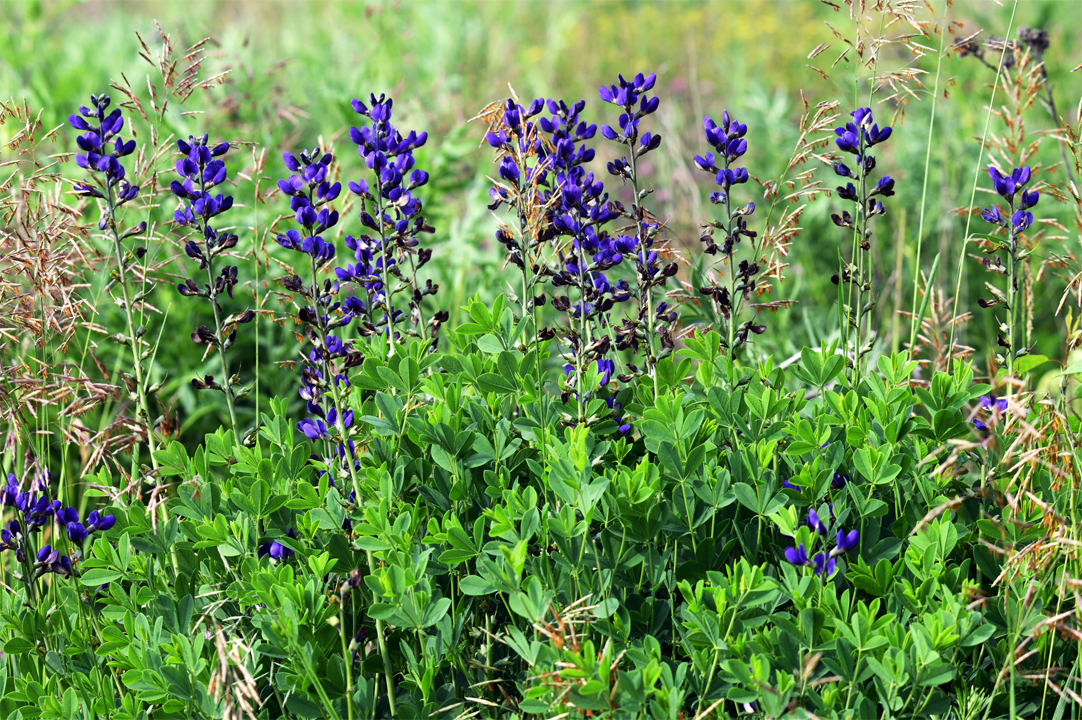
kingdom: Plantae
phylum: Tracheophyta
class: Magnoliopsida
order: Fabales
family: Fabaceae
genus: Baptisia
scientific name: Baptisia australis
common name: Blue false indigo
